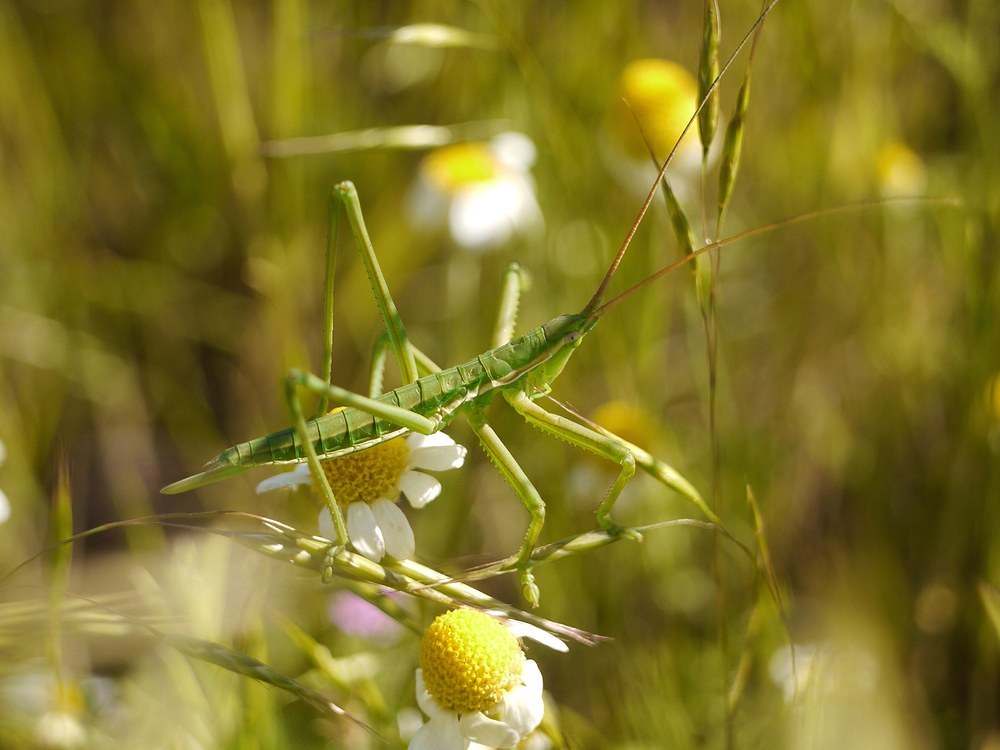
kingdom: Animalia
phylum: Arthropoda
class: Insecta
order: Orthoptera
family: Tettigoniidae
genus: Saga
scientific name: Saga pedo
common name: Common predatory bush-cricket
